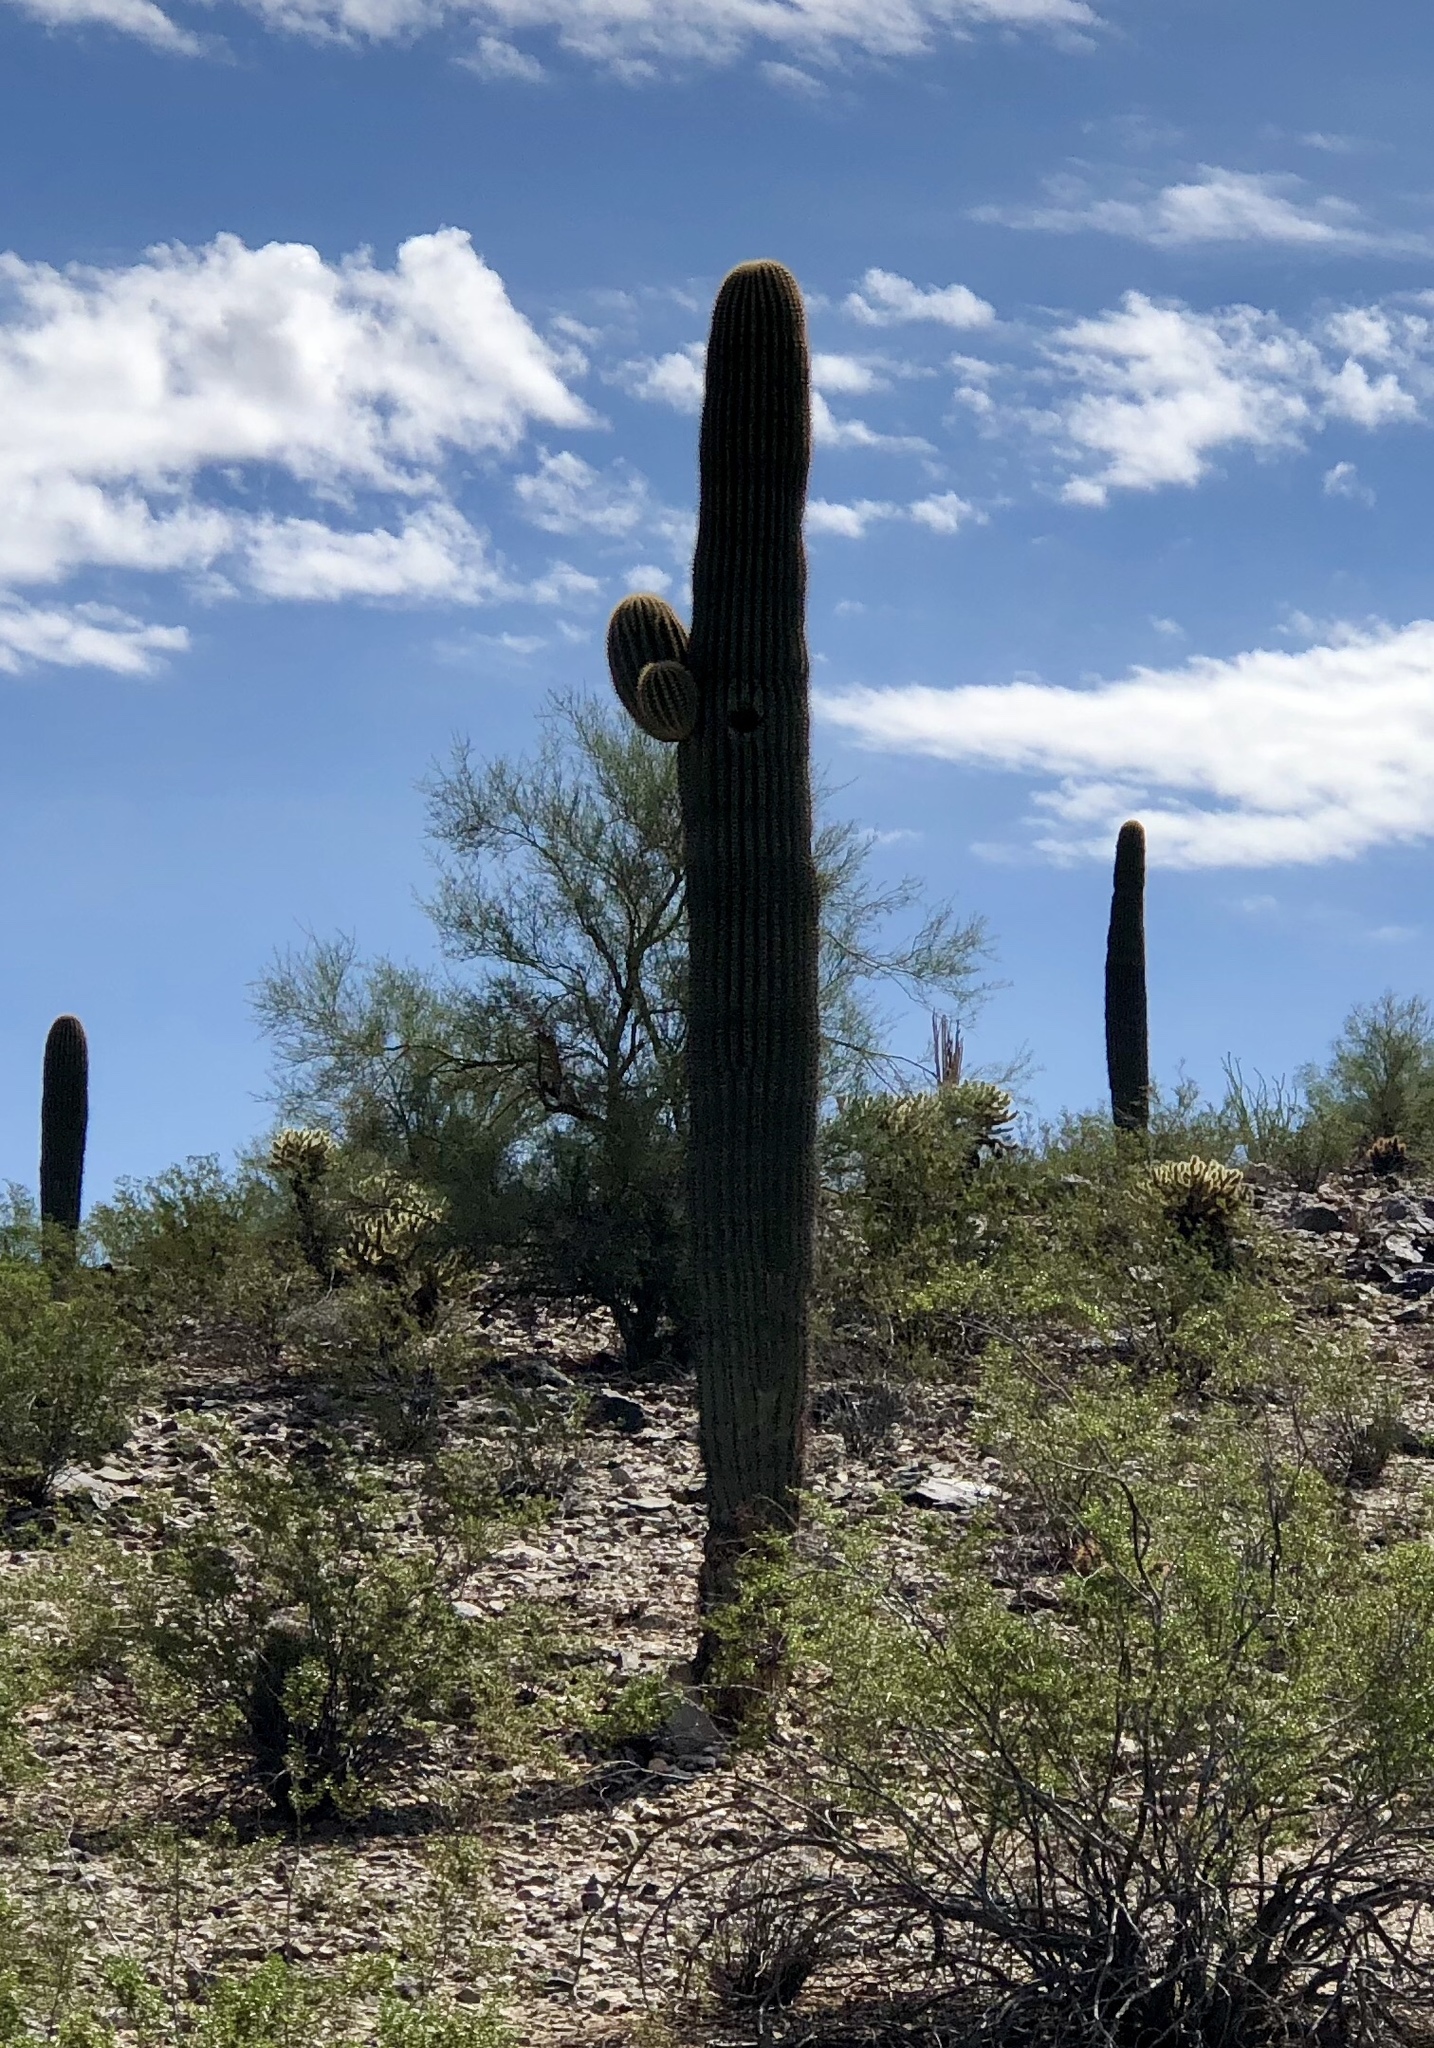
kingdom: Plantae
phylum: Tracheophyta
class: Magnoliopsida
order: Caryophyllales
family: Cactaceae
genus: Carnegiea
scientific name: Carnegiea gigantea
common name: Saguaro
